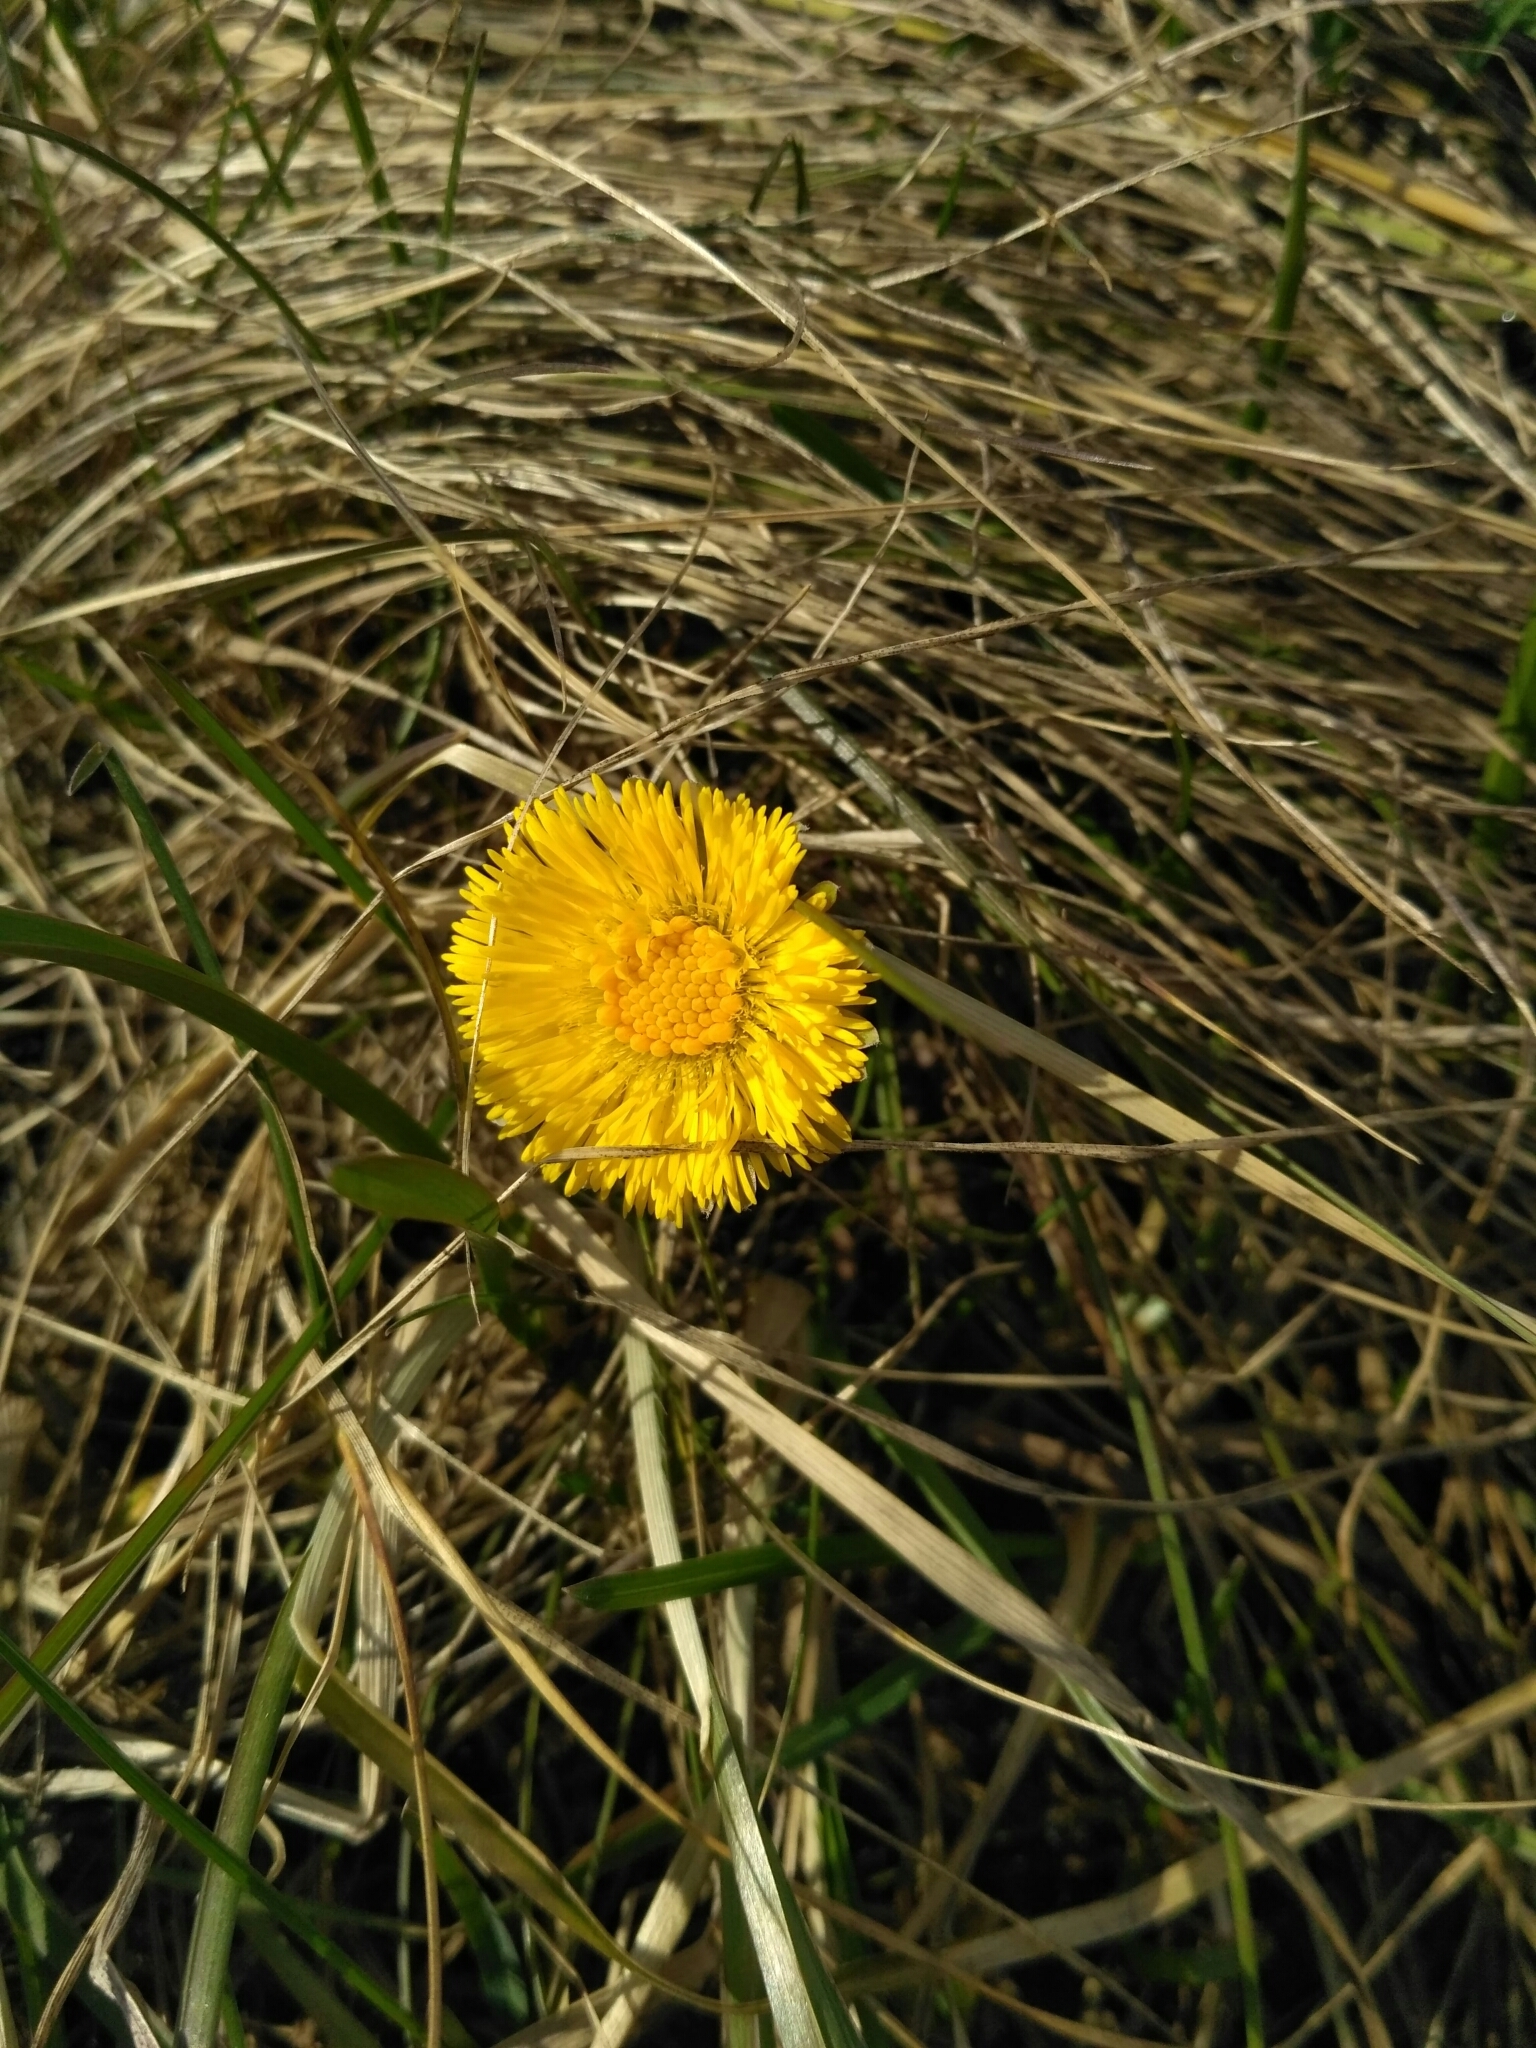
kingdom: Plantae
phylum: Tracheophyta
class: Magnoliopsida
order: Asterales
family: Asteraceae
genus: Tussilago
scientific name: Tussilago farfara
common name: Coltsfoot
